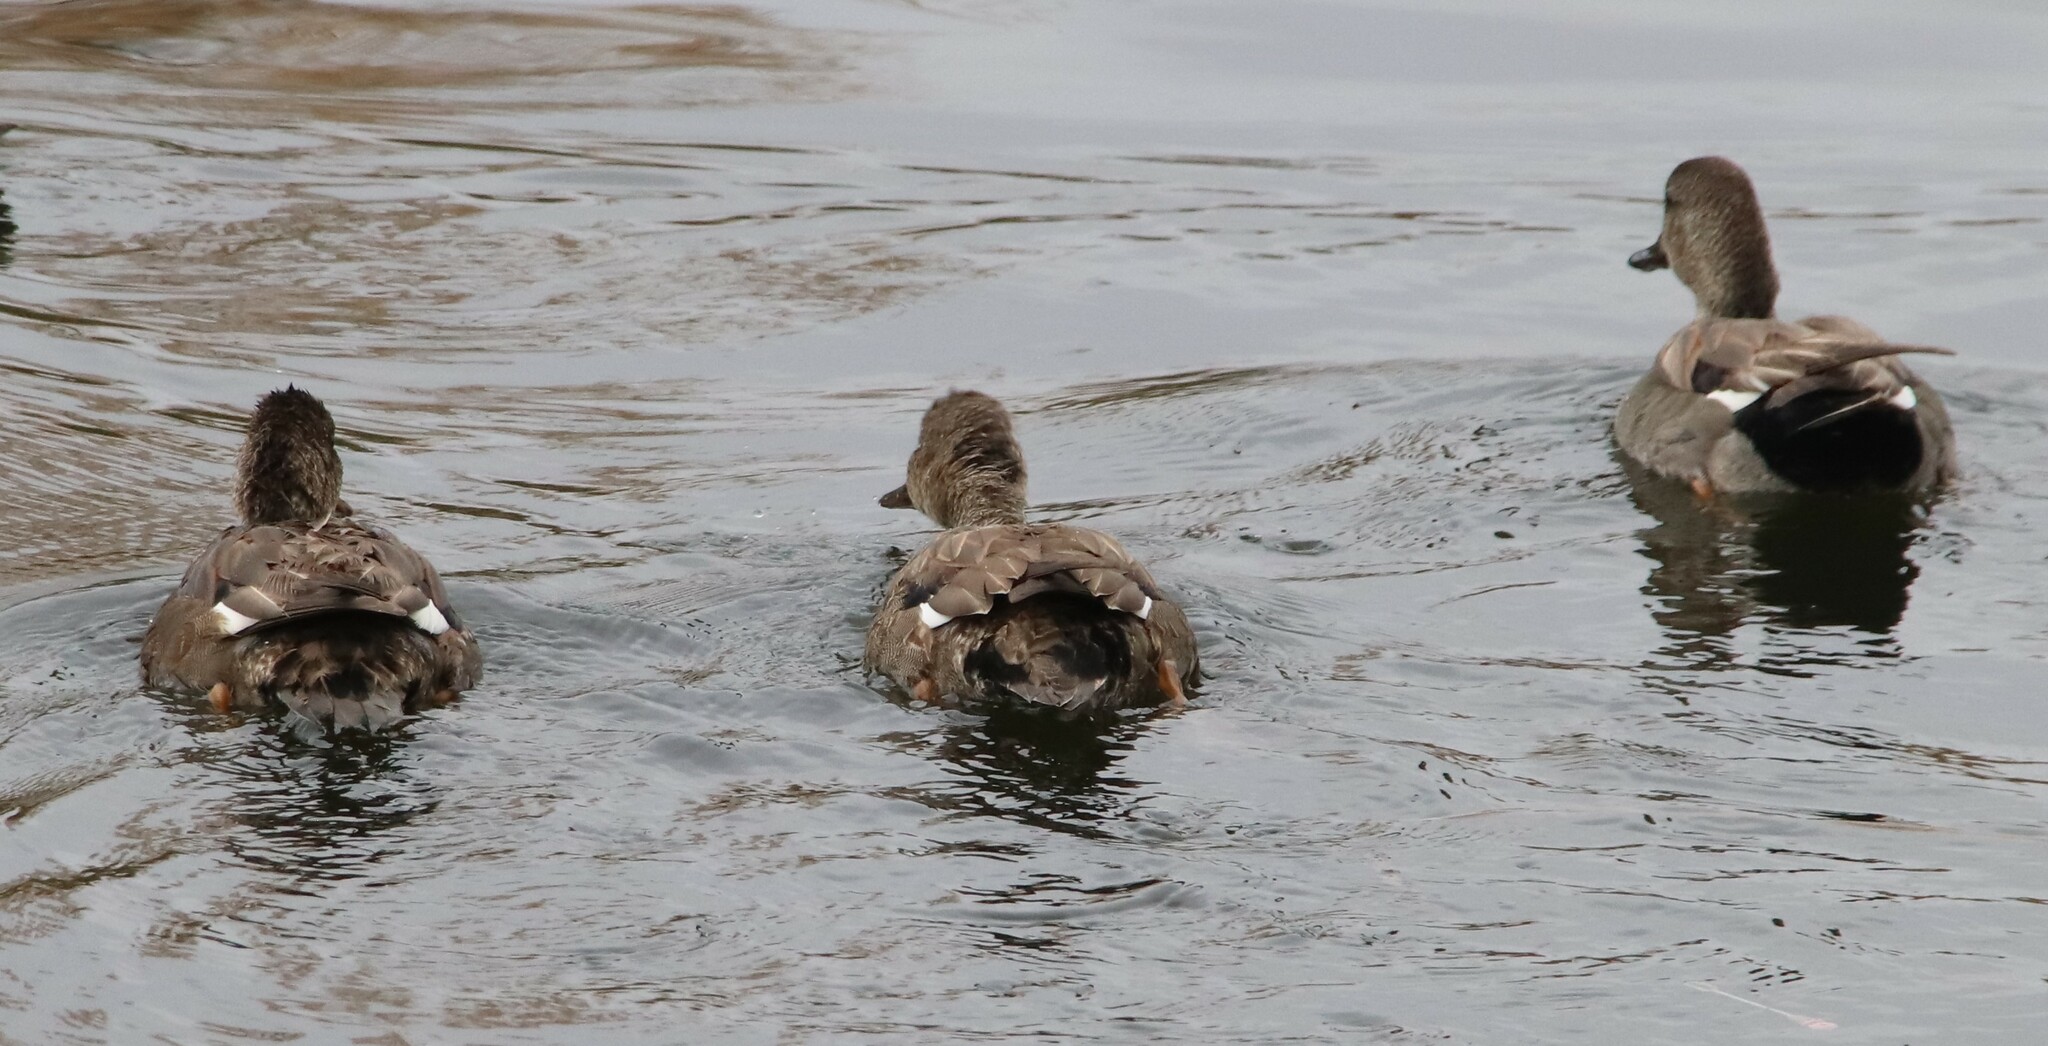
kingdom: Animalia
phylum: Chordata
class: Aves
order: Anseriformes
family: Anatidae
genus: Mareca
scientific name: Mareca strepera
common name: Gadwall
